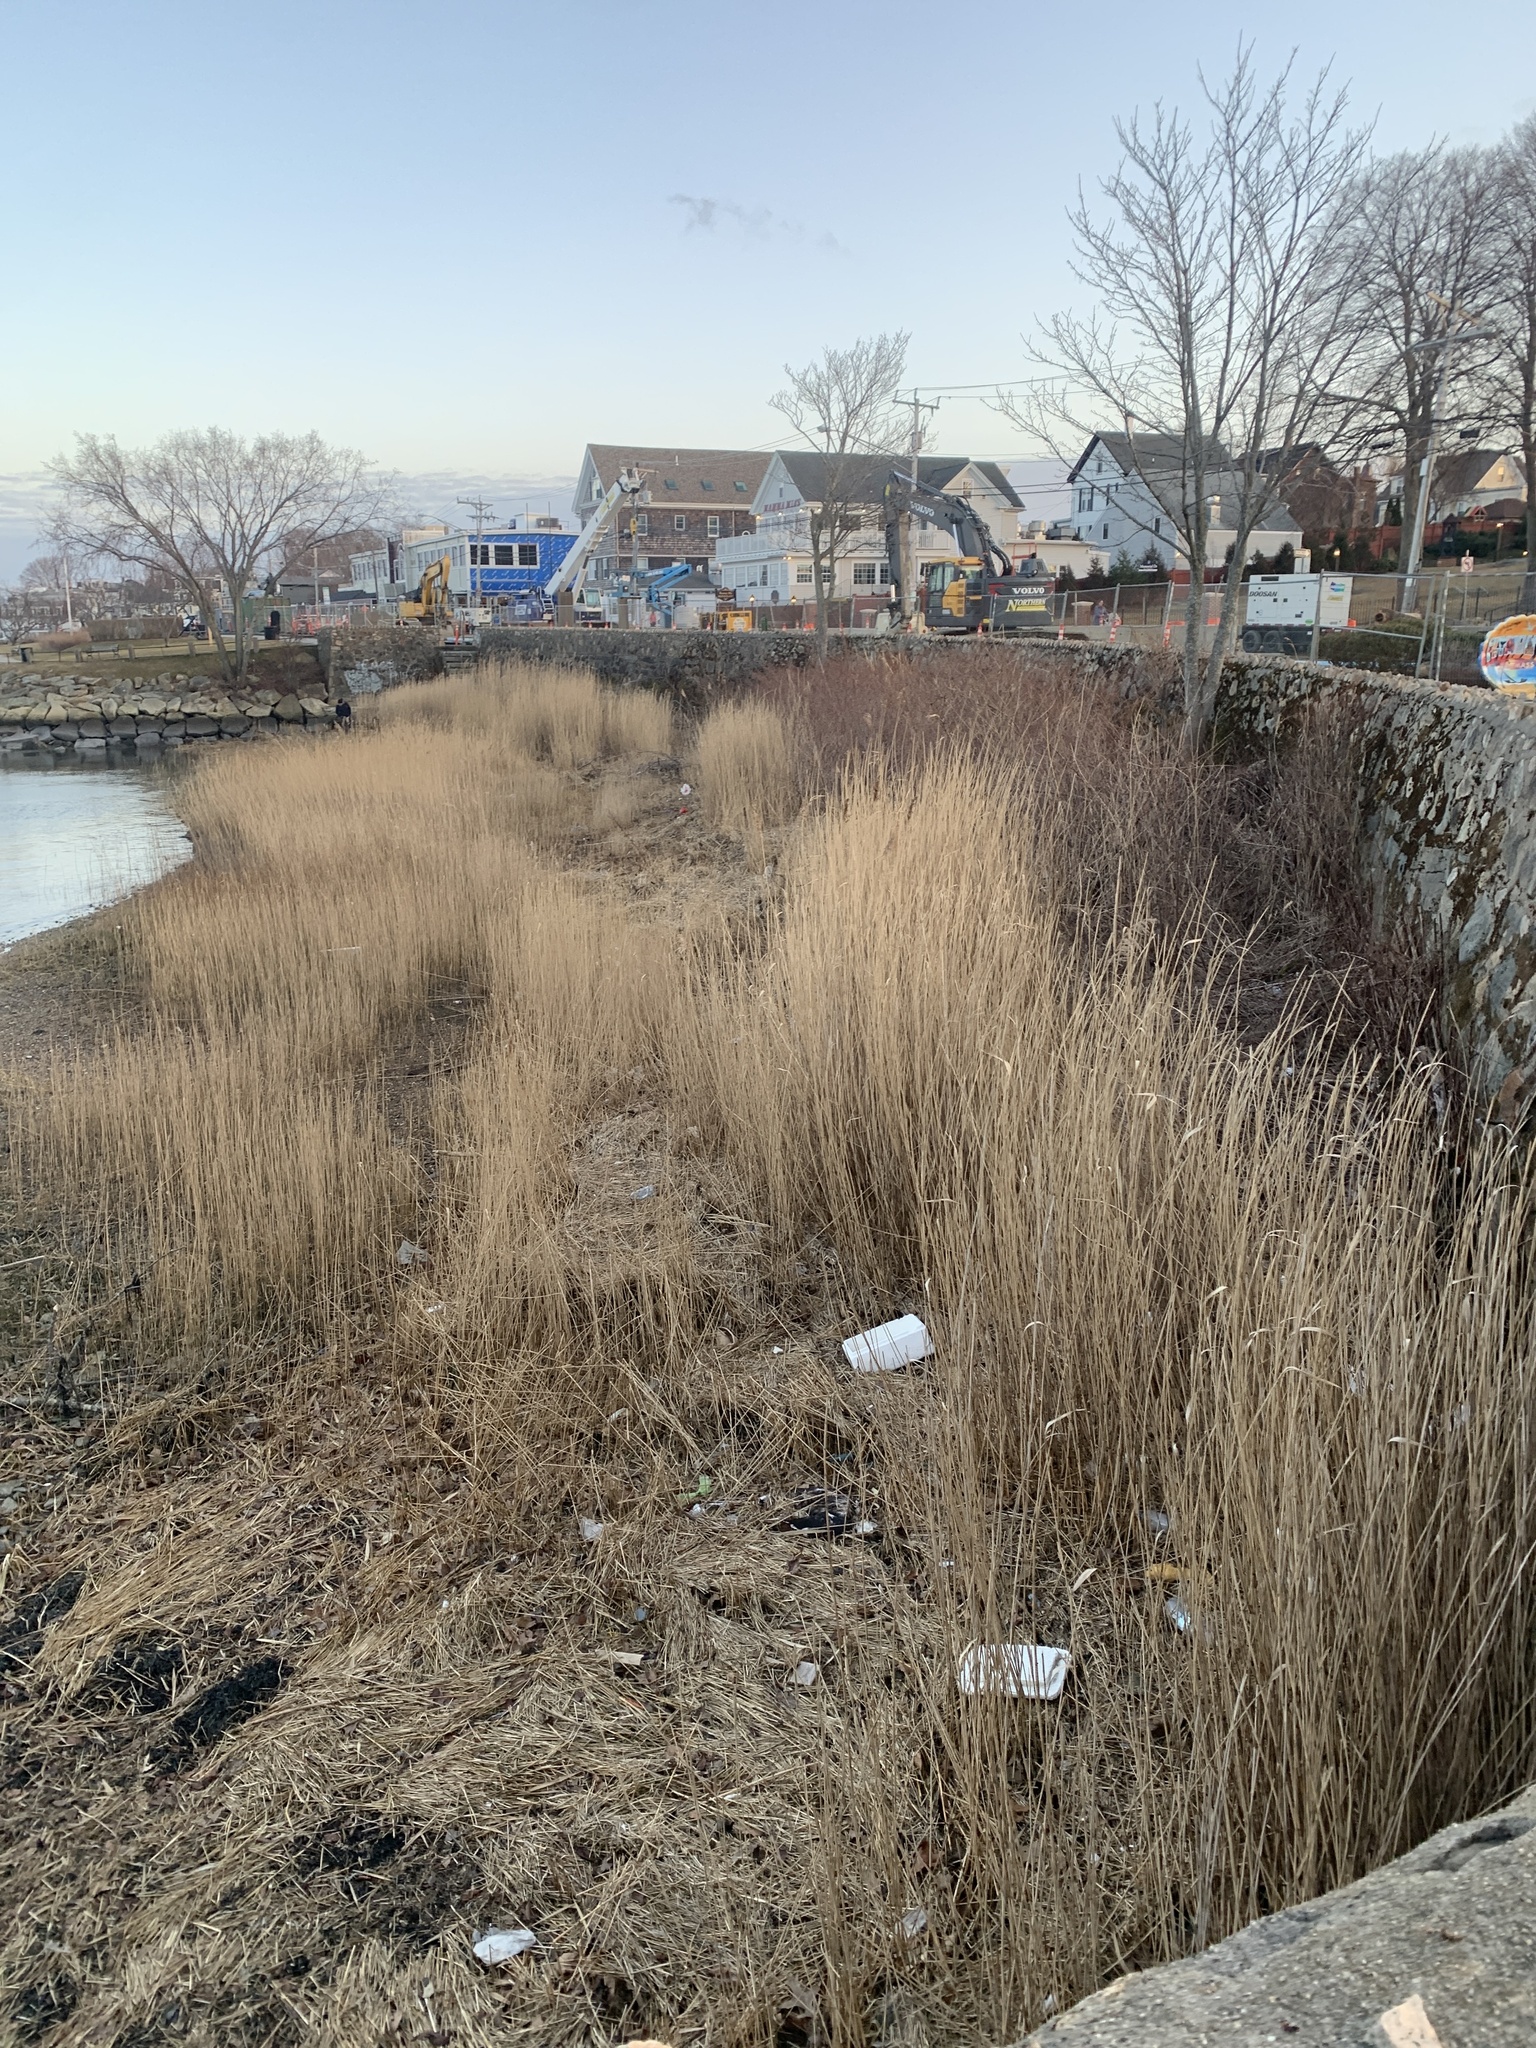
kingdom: Plantae
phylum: Tracheophyta
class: Liliopsida
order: Poales
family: Poaceae
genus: Phragmites
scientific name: Phragmites australis
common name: Common reed
